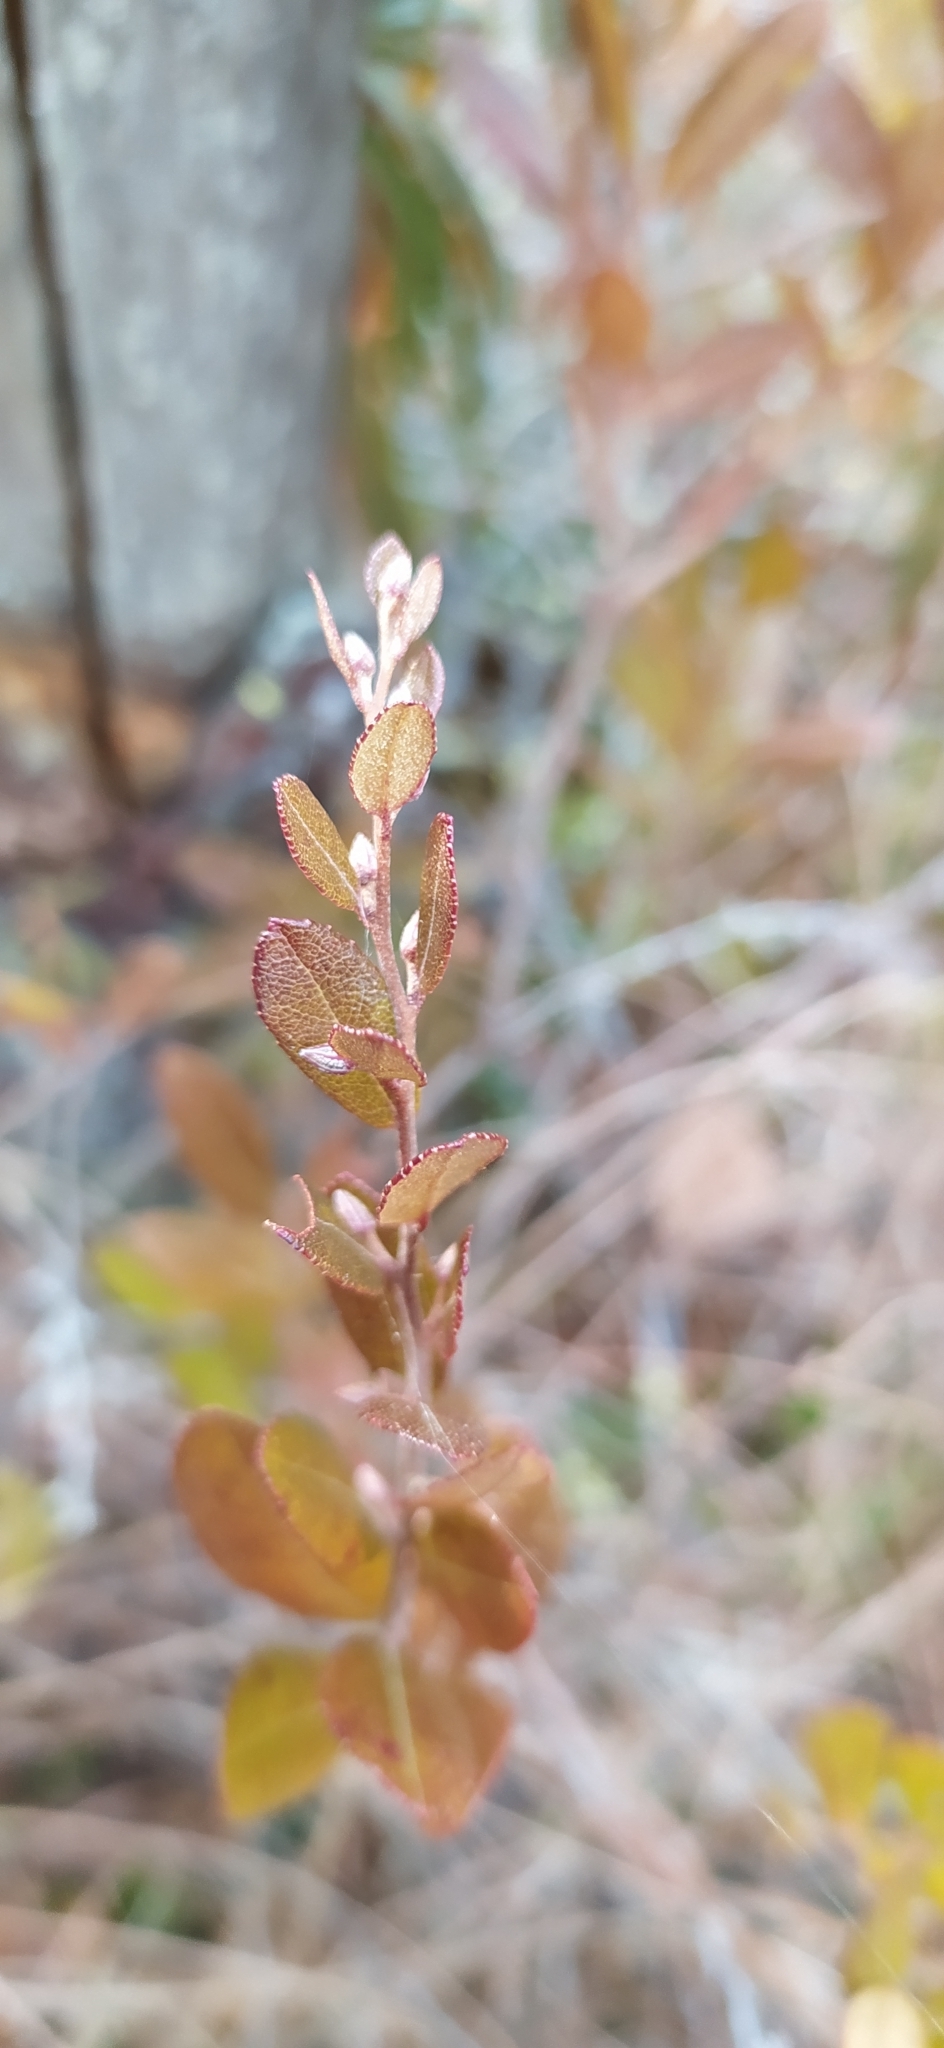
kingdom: Plantae
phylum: Tracheophyta
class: Magnoliopsida
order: Ericales
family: Ericaceae
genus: Chamaedaphne
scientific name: Chamaedaphne calyculata
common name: Leatherleaf
